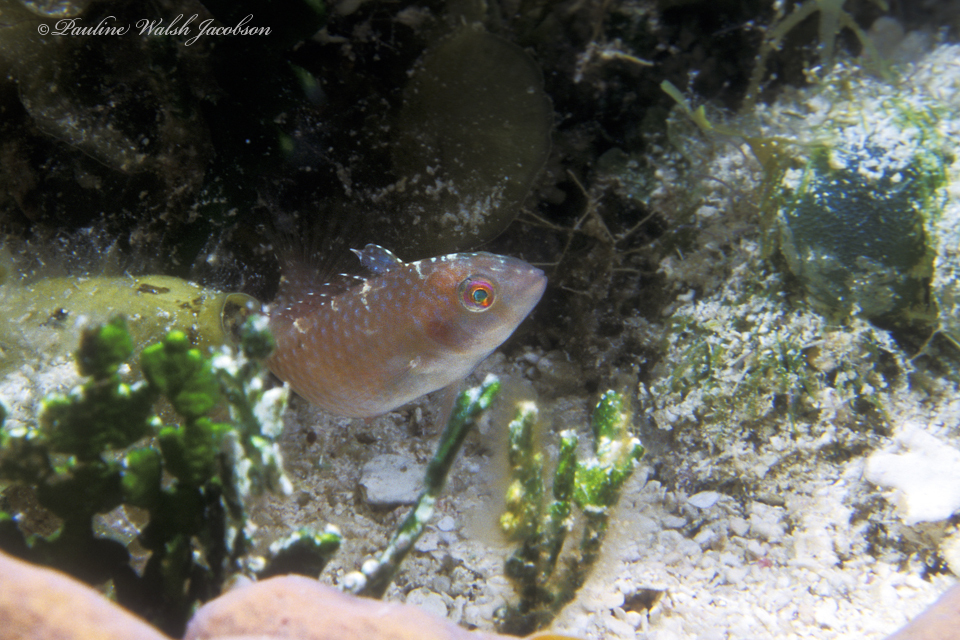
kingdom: Animalia
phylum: Chordata
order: Perciformes
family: Labridae
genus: Xyrichtys
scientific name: Xyrichtys splendens
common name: Green razorfish
